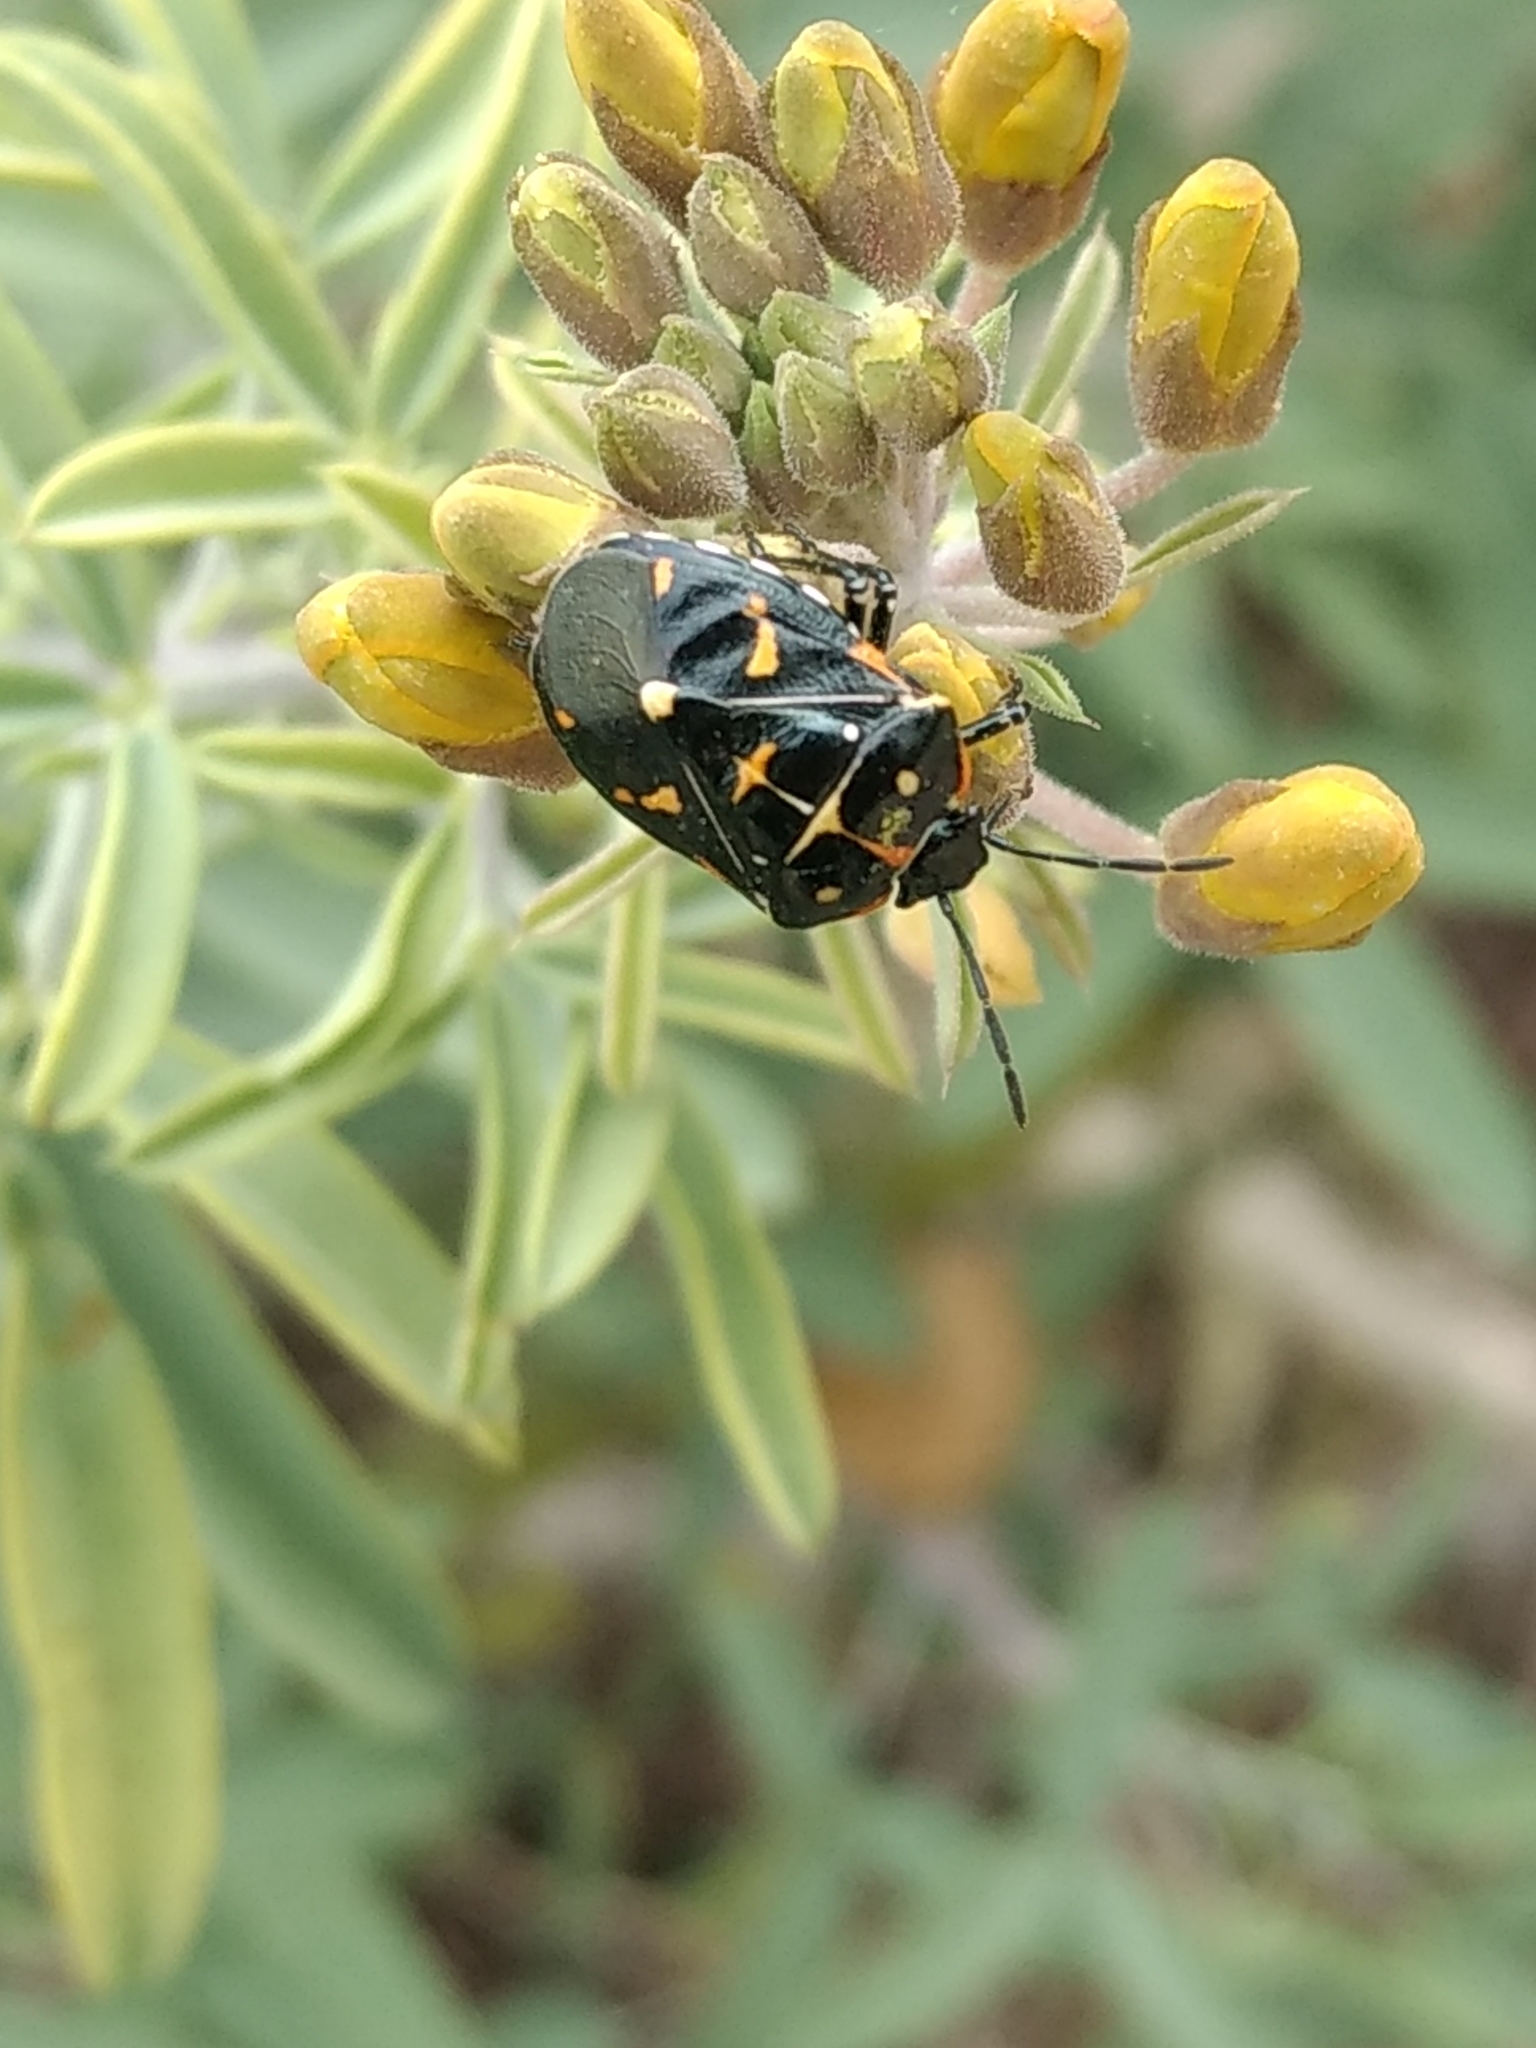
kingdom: Animalia
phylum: Arthropoda
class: Insecta
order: Hemiptera
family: Pentatomidae
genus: Murgantia
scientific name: Murgantia histrionica
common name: Harlequin bug
